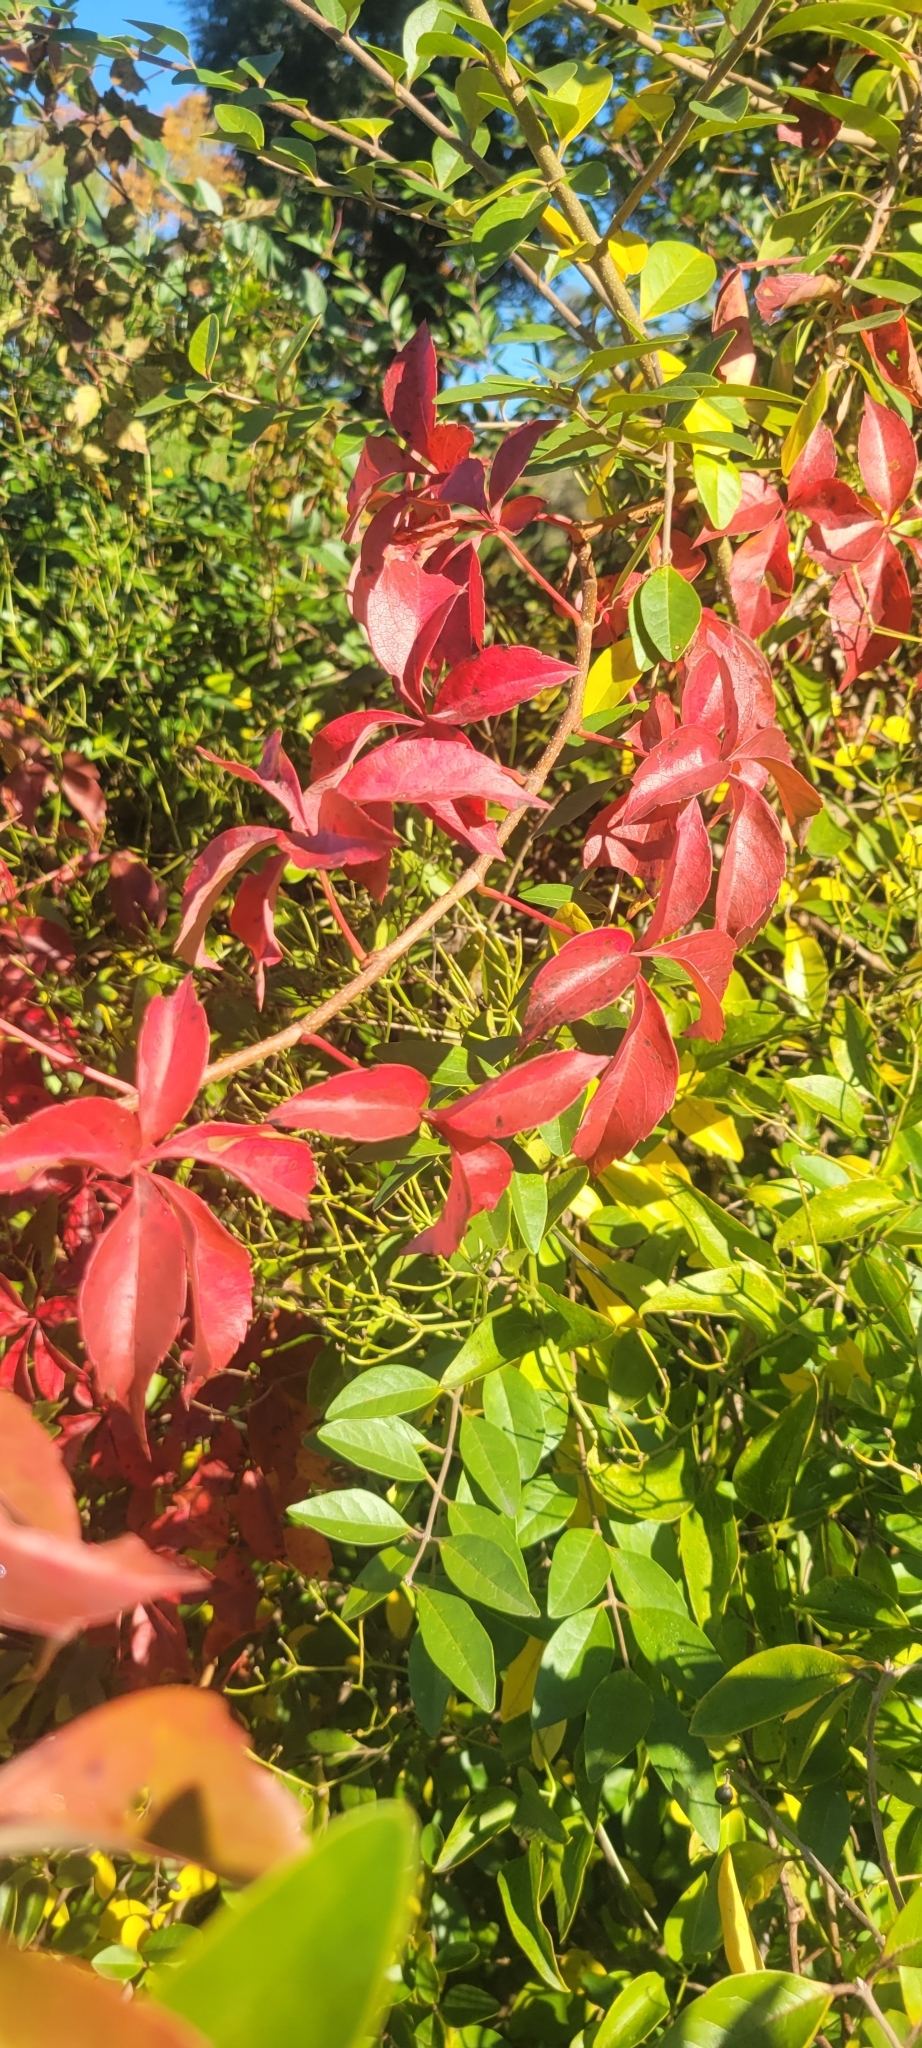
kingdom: Plantae
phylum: Tracheophyta
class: Magnoliopsida
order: Vitales
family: Vitaceae
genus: Parthenocissus
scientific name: Parthenocissus quinquefolia
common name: Virginia-creeper
